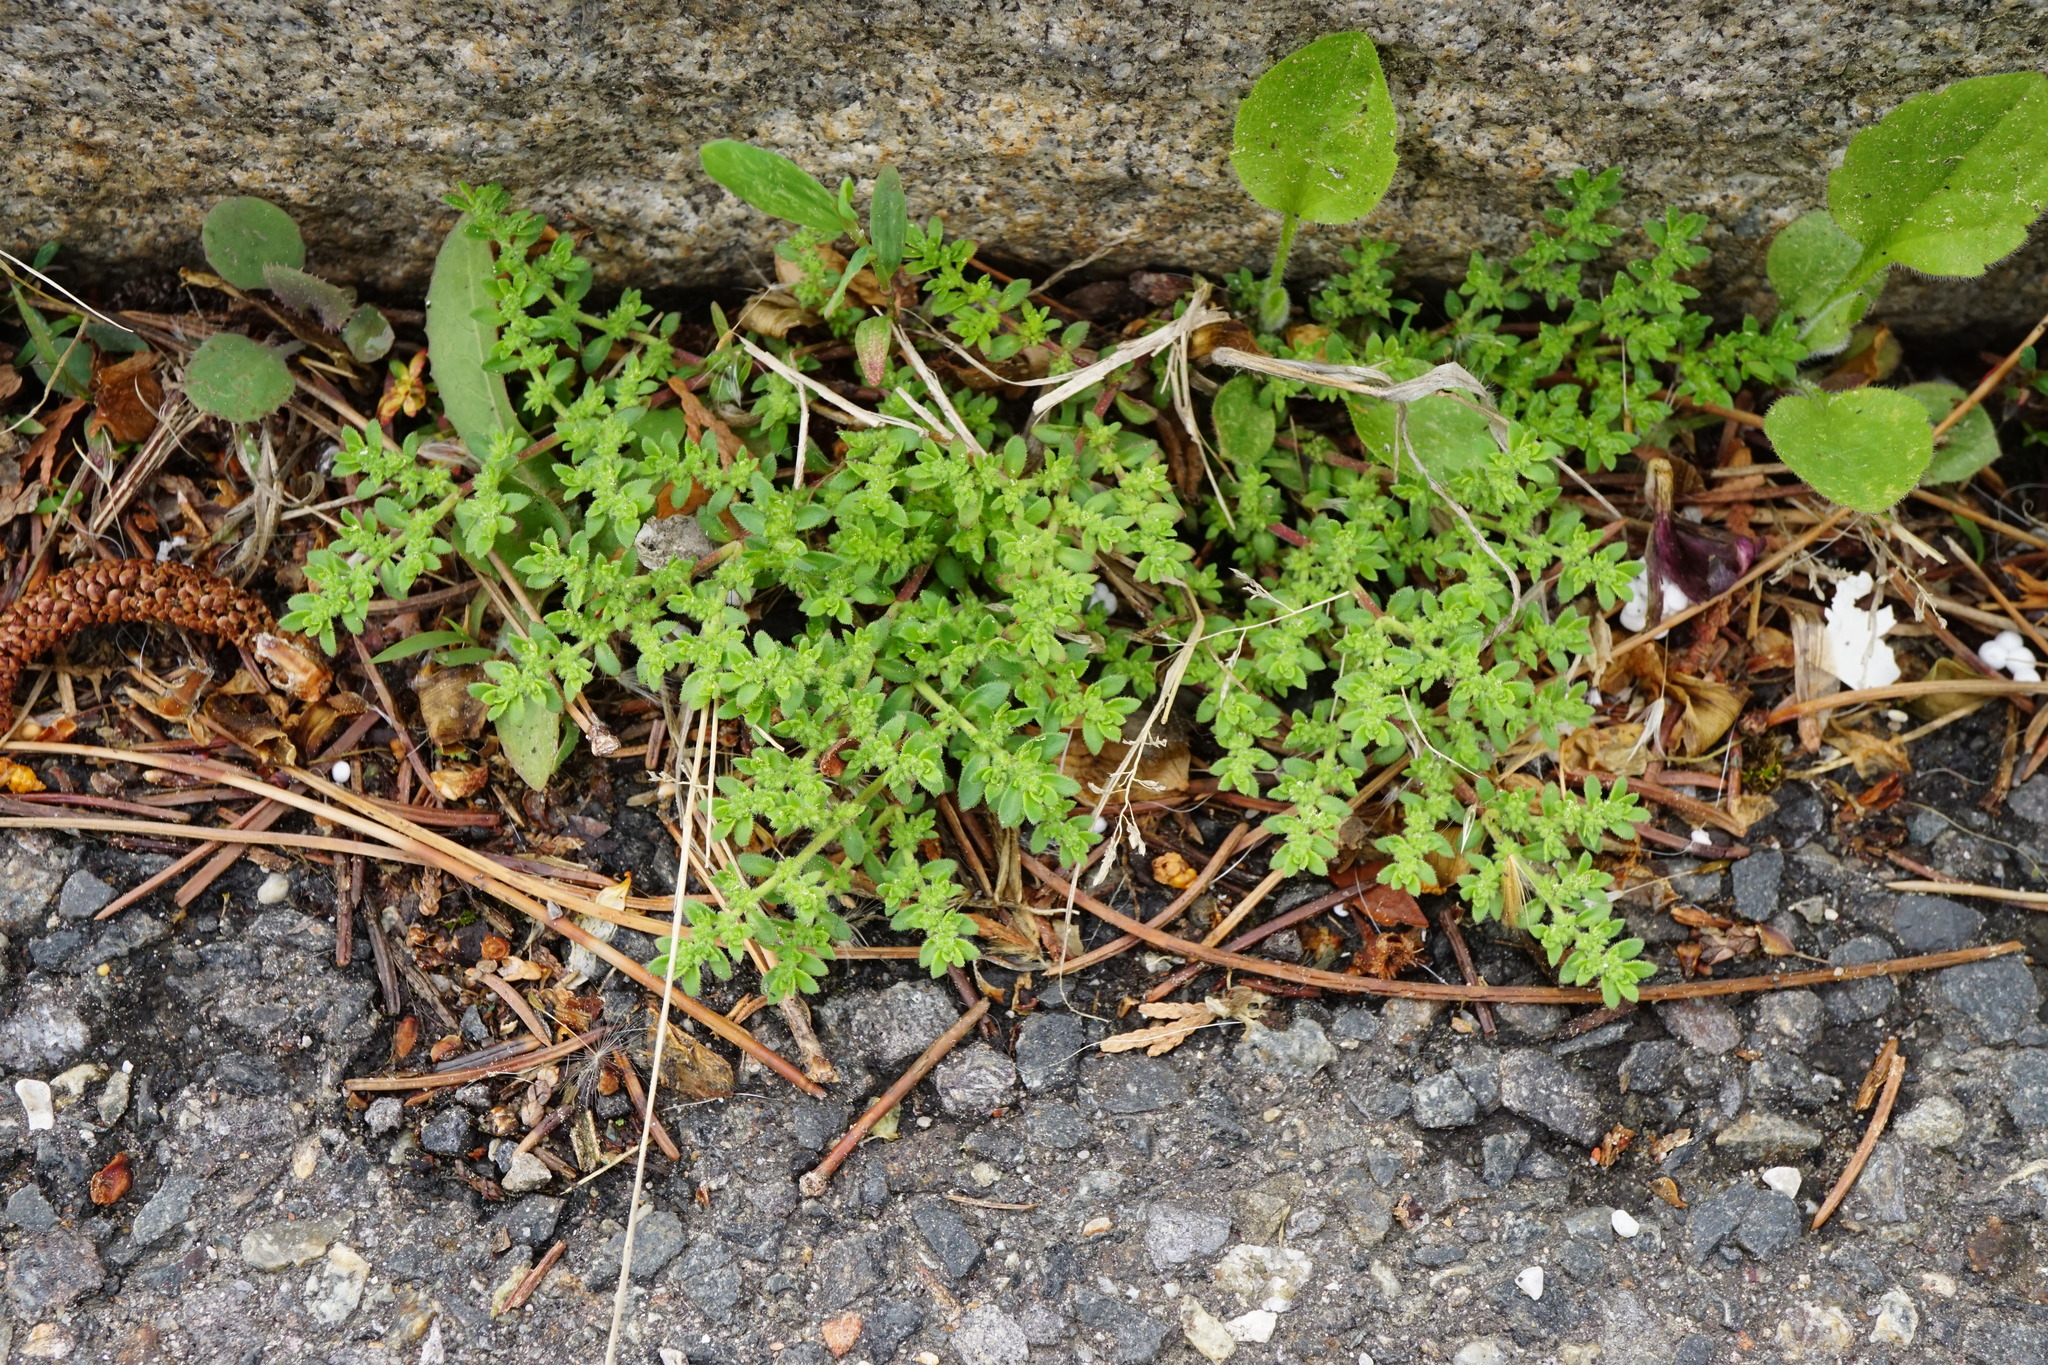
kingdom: Plantae
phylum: Tracheophyta
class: Magnoliopsida
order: Caryophyllales
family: Caryophyllaceae
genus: Herniaria
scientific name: Herniaria hirsuta
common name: Hairy rupturewort
